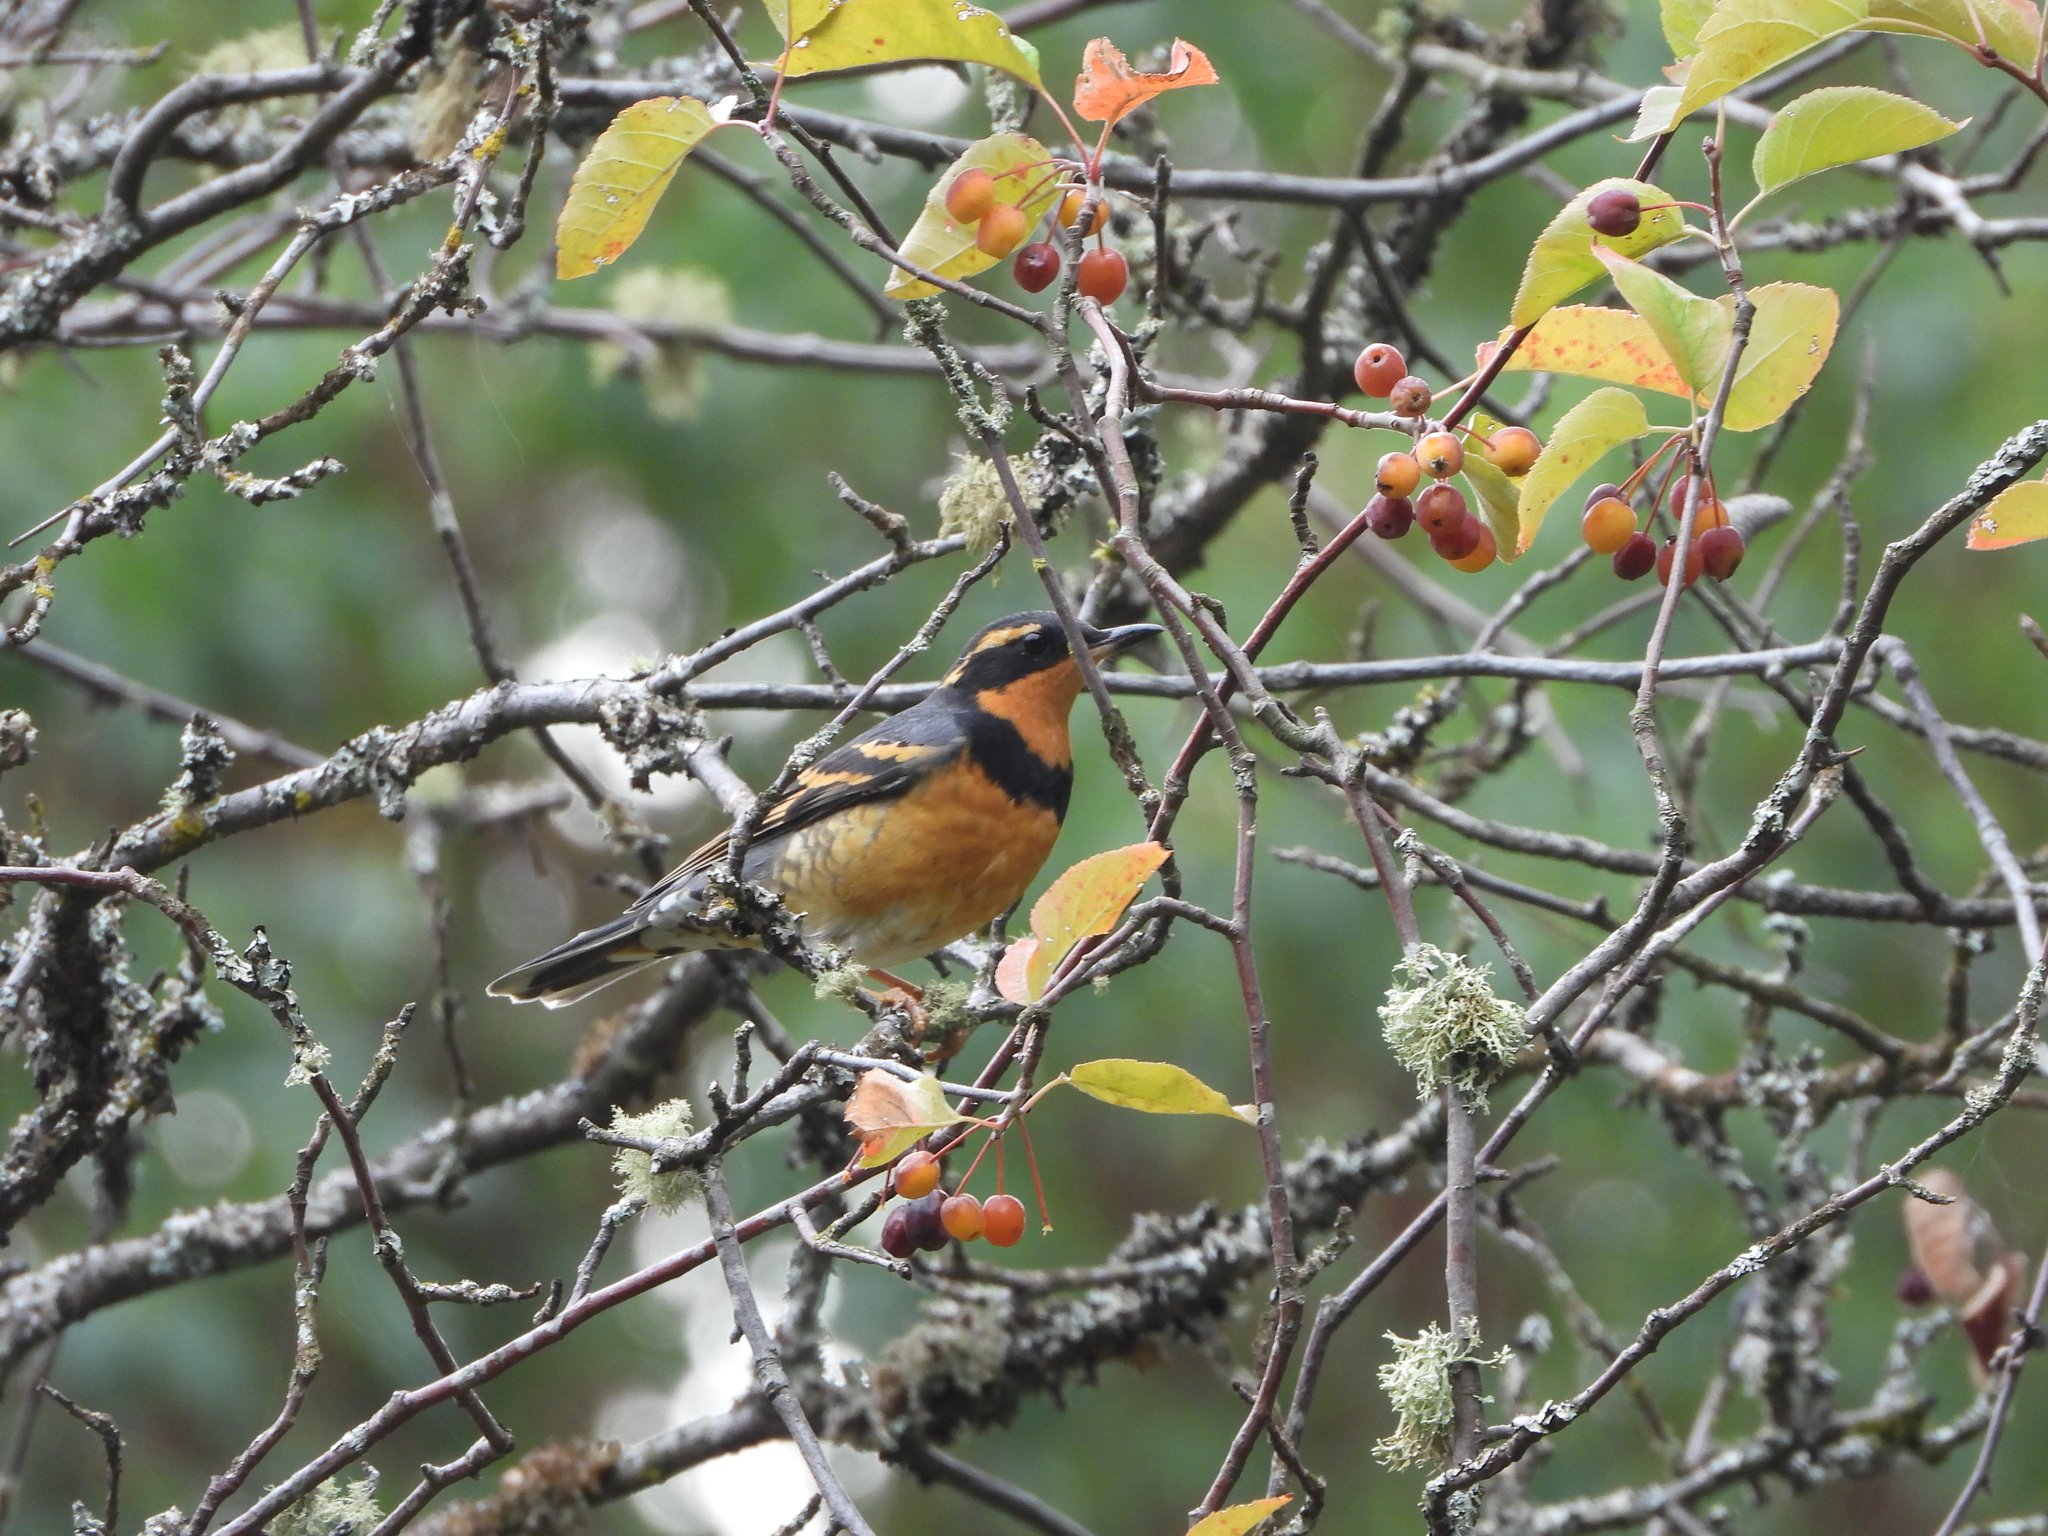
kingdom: Animalia
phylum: Chordata
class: Aves
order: Passeriformes
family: Turdidae
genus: Ixoreus
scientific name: Ixoreus naevius
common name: Varied thrush
